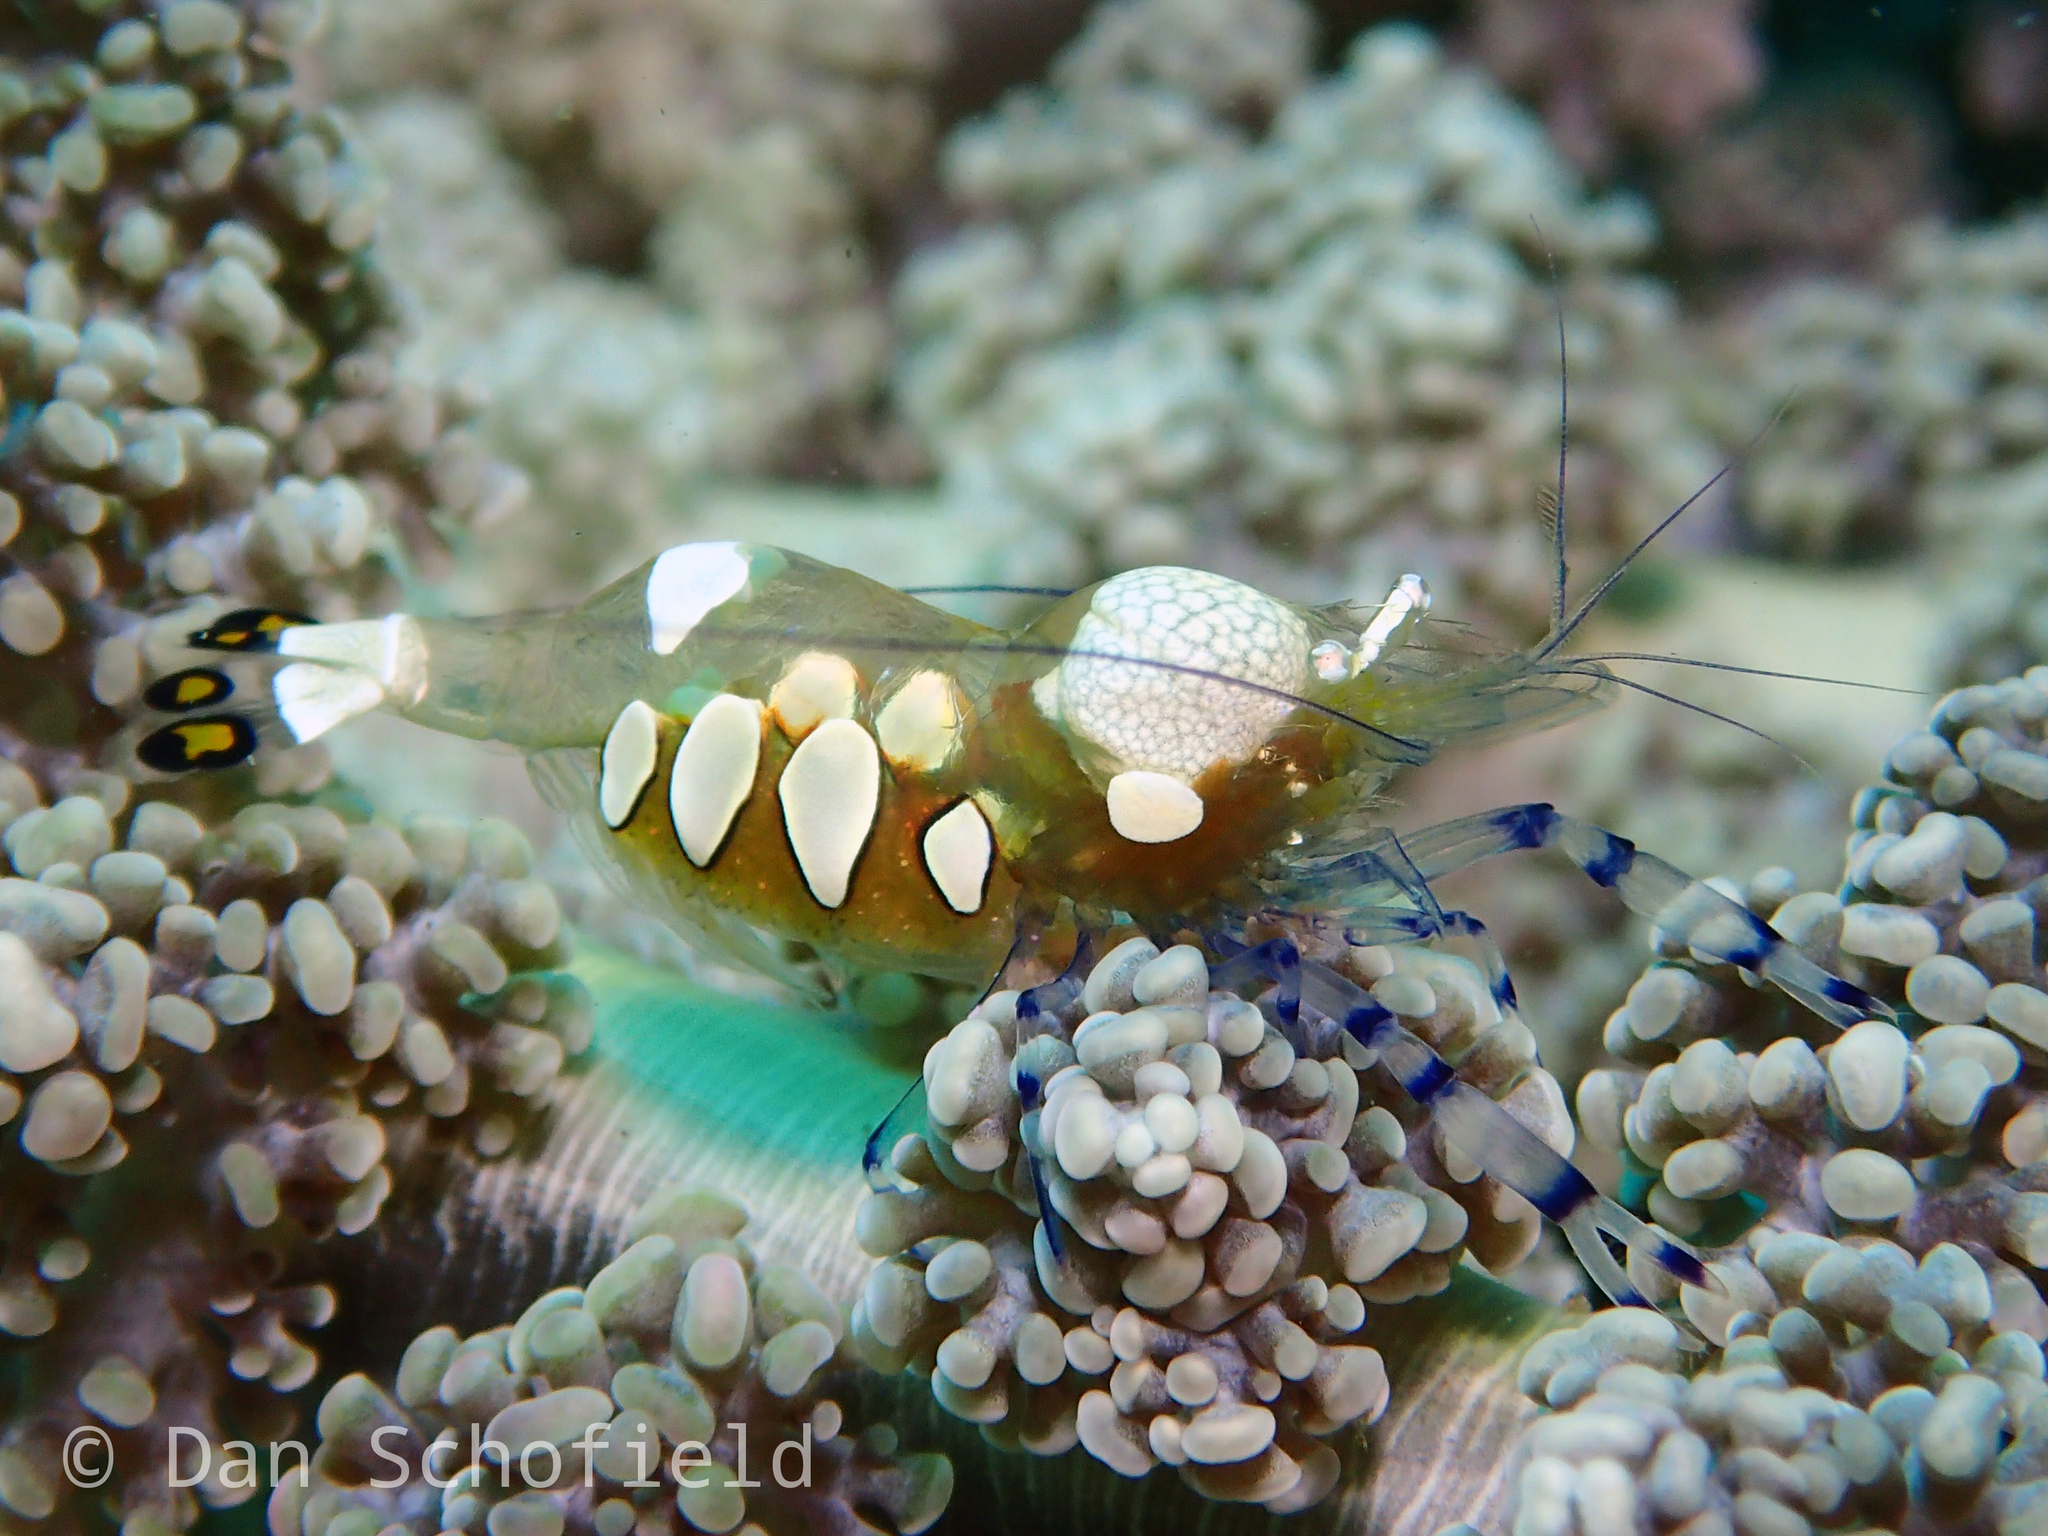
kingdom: Animalia
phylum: Arthropoda
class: Malacostraca
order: Decapoda
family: Palaemonidae
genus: Ancylocaris
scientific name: Ancylocaris brevicarpalis
